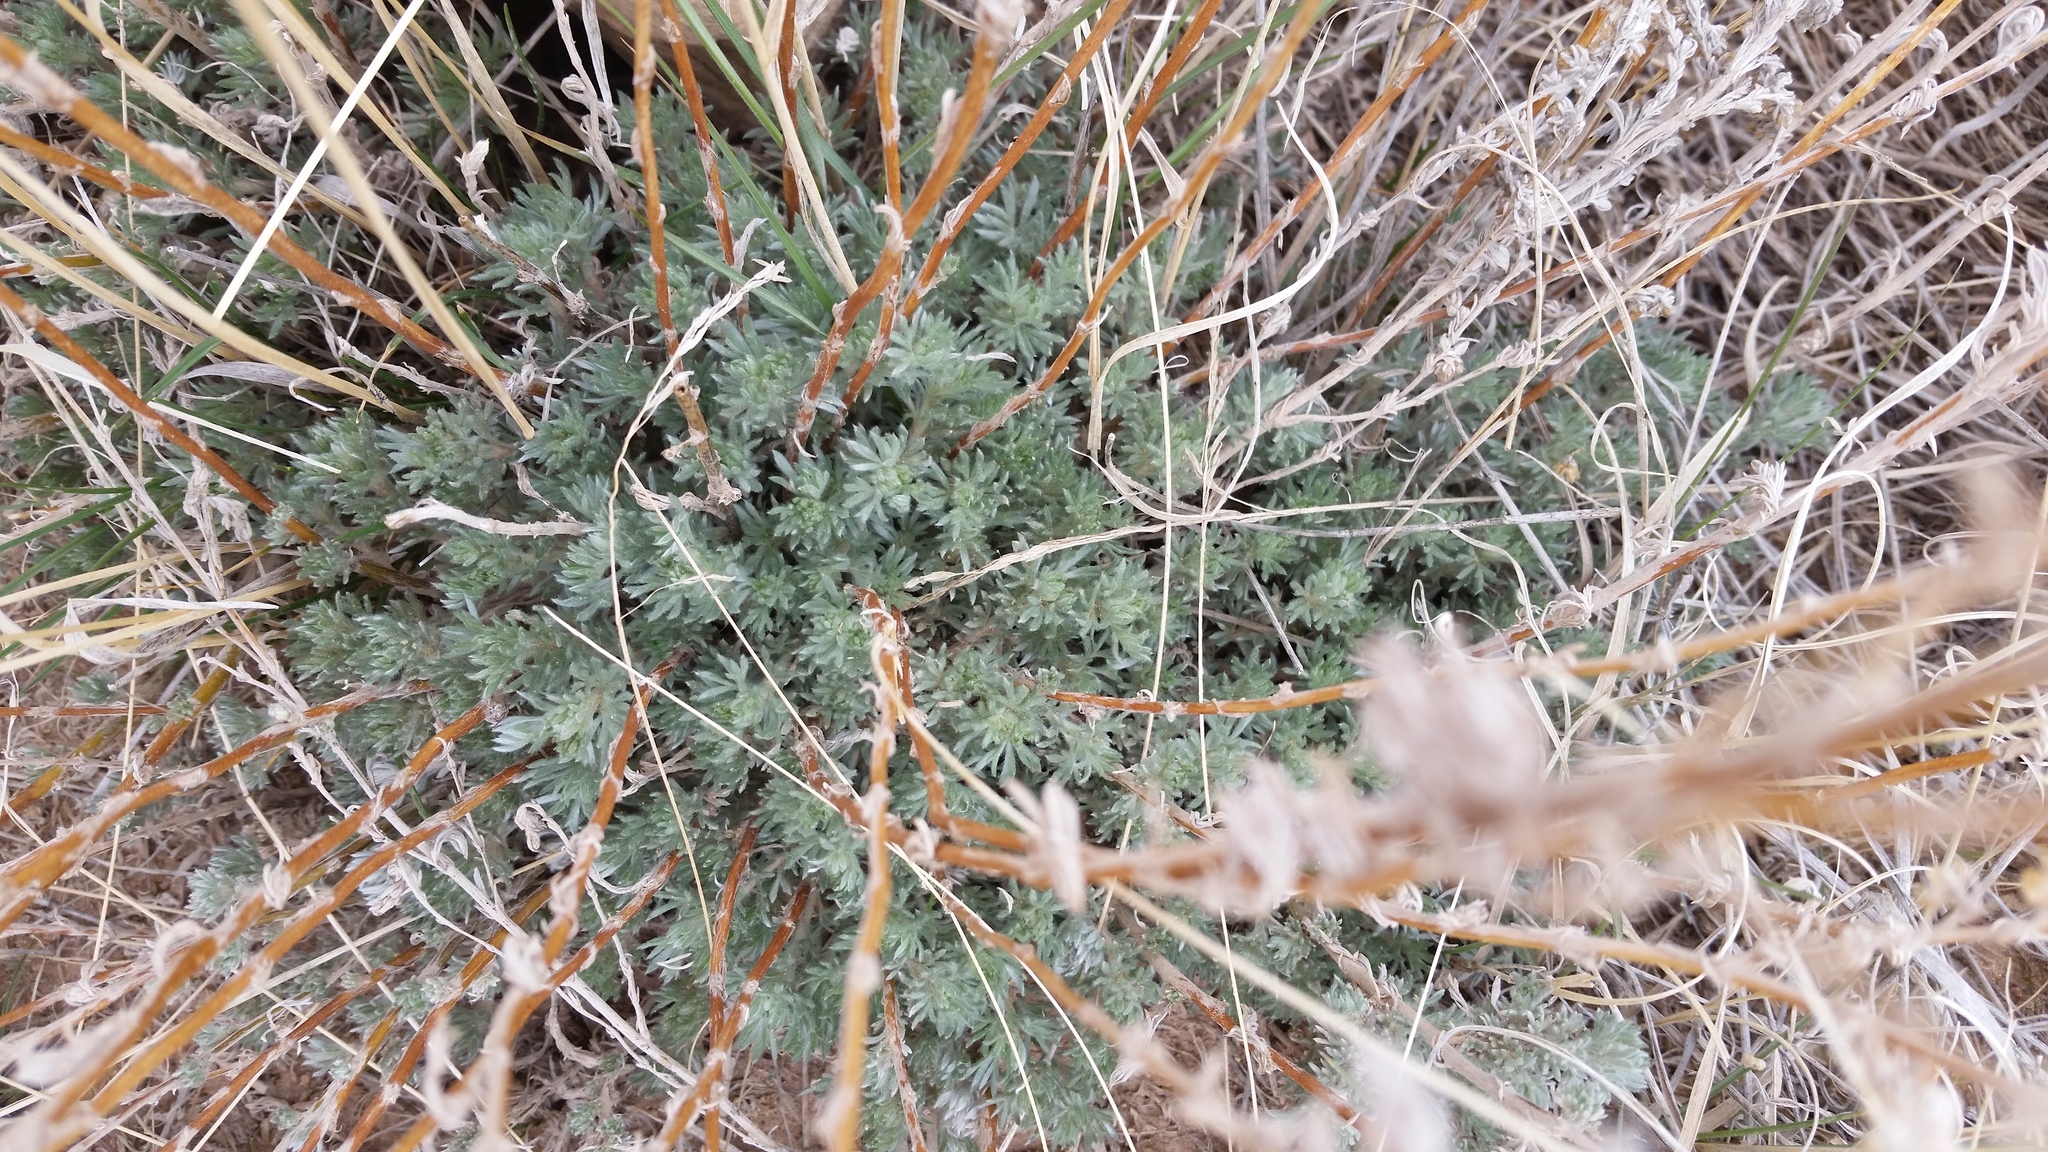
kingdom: Plantae
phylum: Tracheophyta
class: Magnoliopsida
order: Asterales
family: Asteraceae
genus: Artemisia
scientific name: Artemisia frigida
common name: Prairie sagewort
